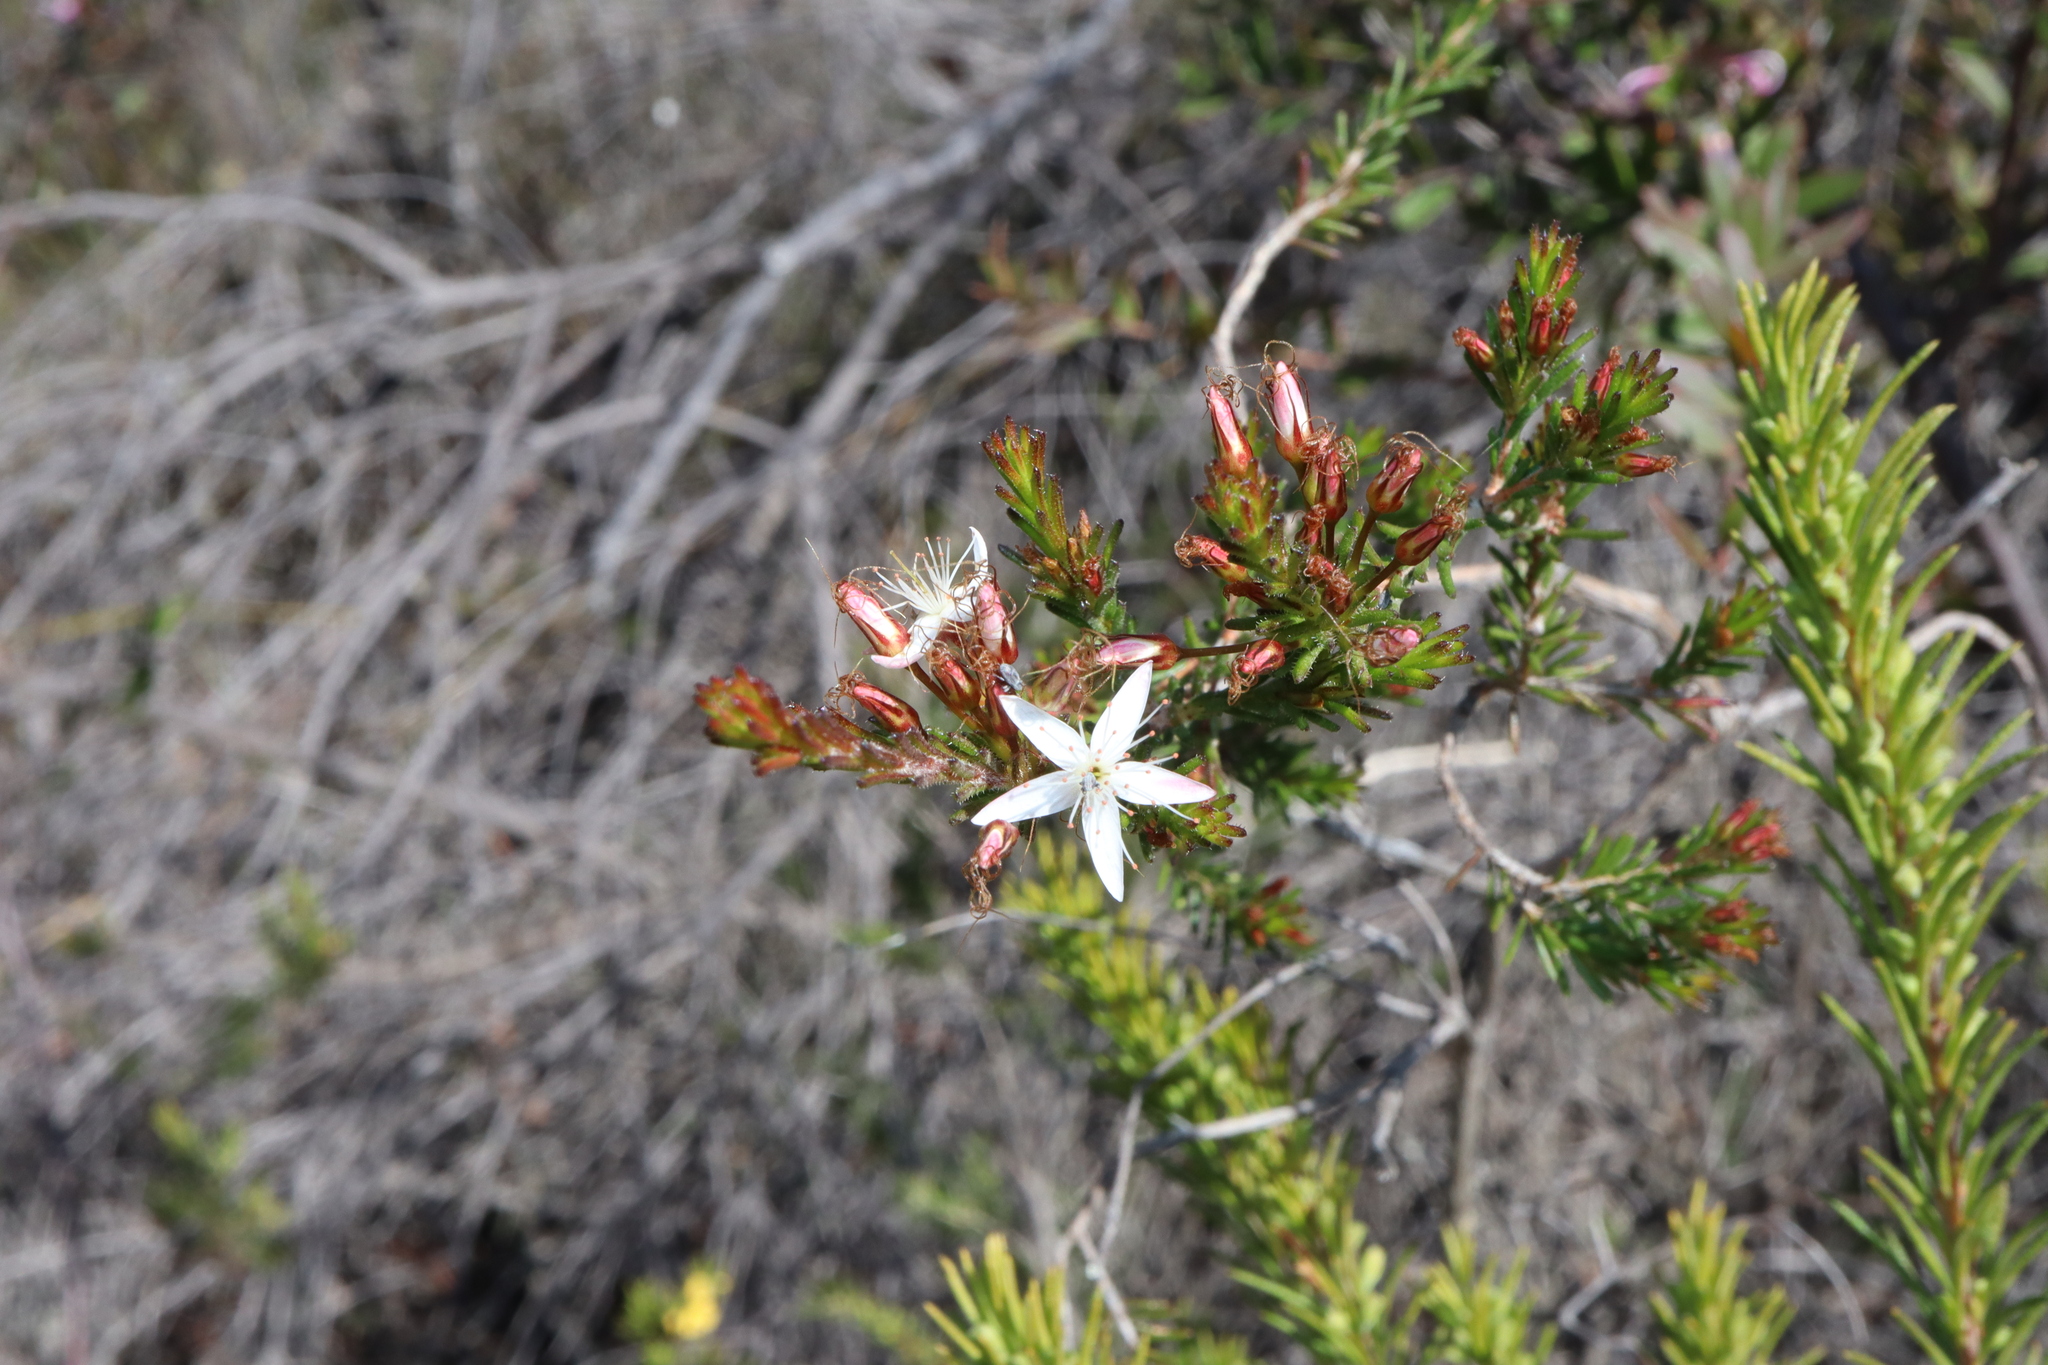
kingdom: Plantae
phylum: Tracheophyta
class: Magnoliopsida
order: Myrtales
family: Myrtaceae
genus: Calytrix
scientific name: Calytrix tetragona
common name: Common fringe myrtle
